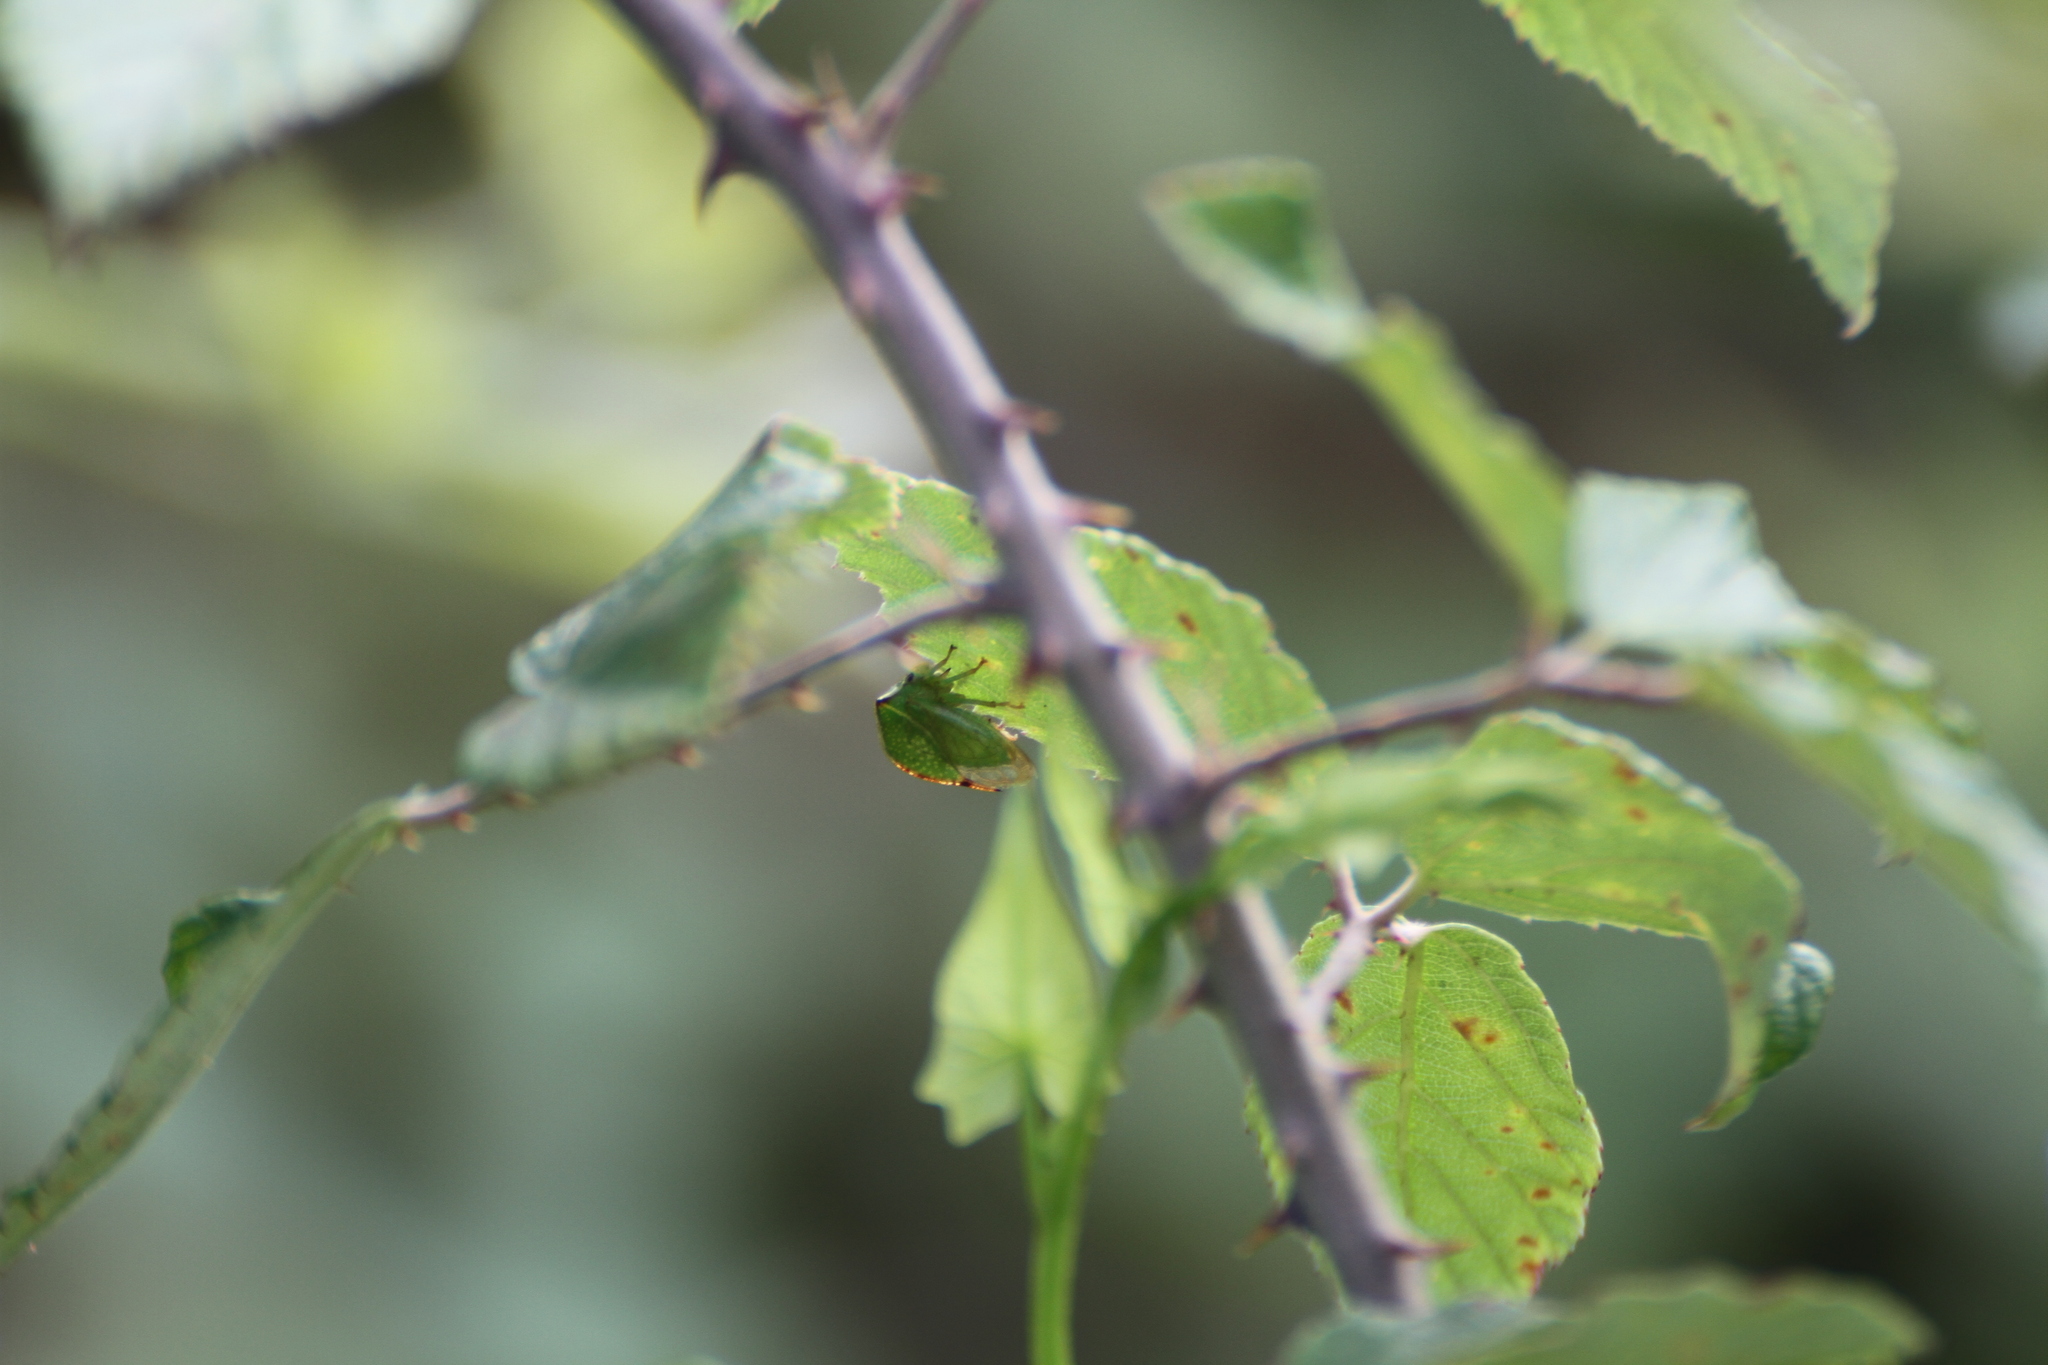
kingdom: Animalia
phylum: Arthropoda
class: Insecta
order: Hemiptera
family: Membracidae
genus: Stictocephala
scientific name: Stictocephala bisonia
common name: American buffalo treehopper
